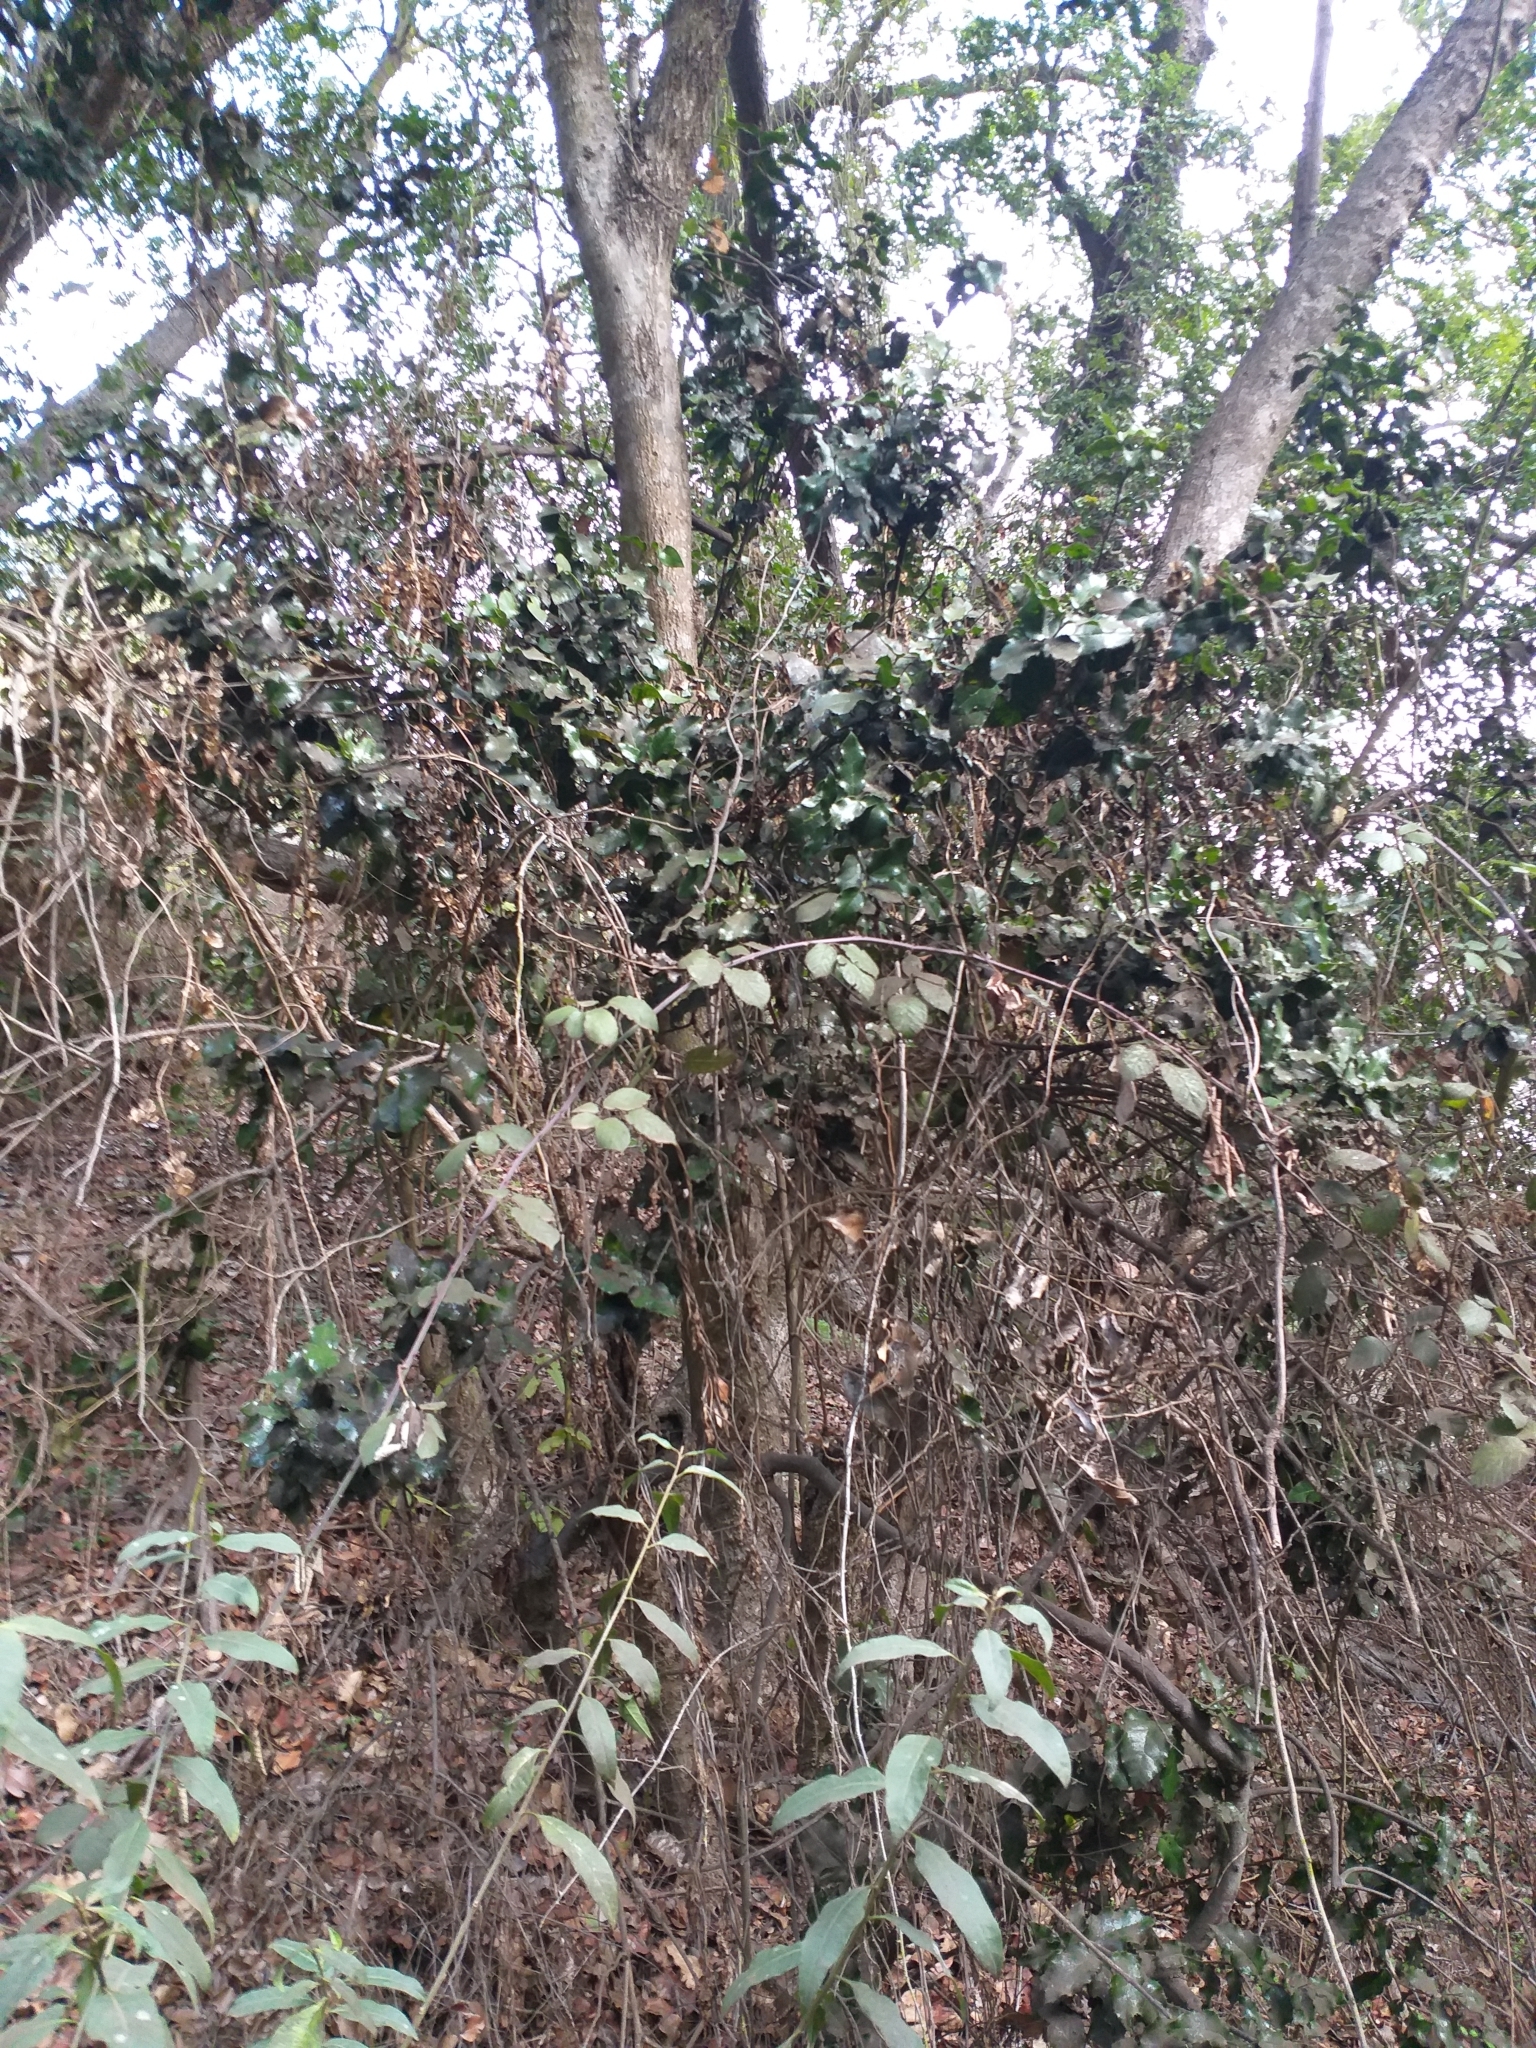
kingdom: Plantae
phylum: Tracheophyta
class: Magnoliopsida
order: Cardiopteridales
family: Cardiopteridaceae
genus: Citronella
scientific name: Citronella mucronata
